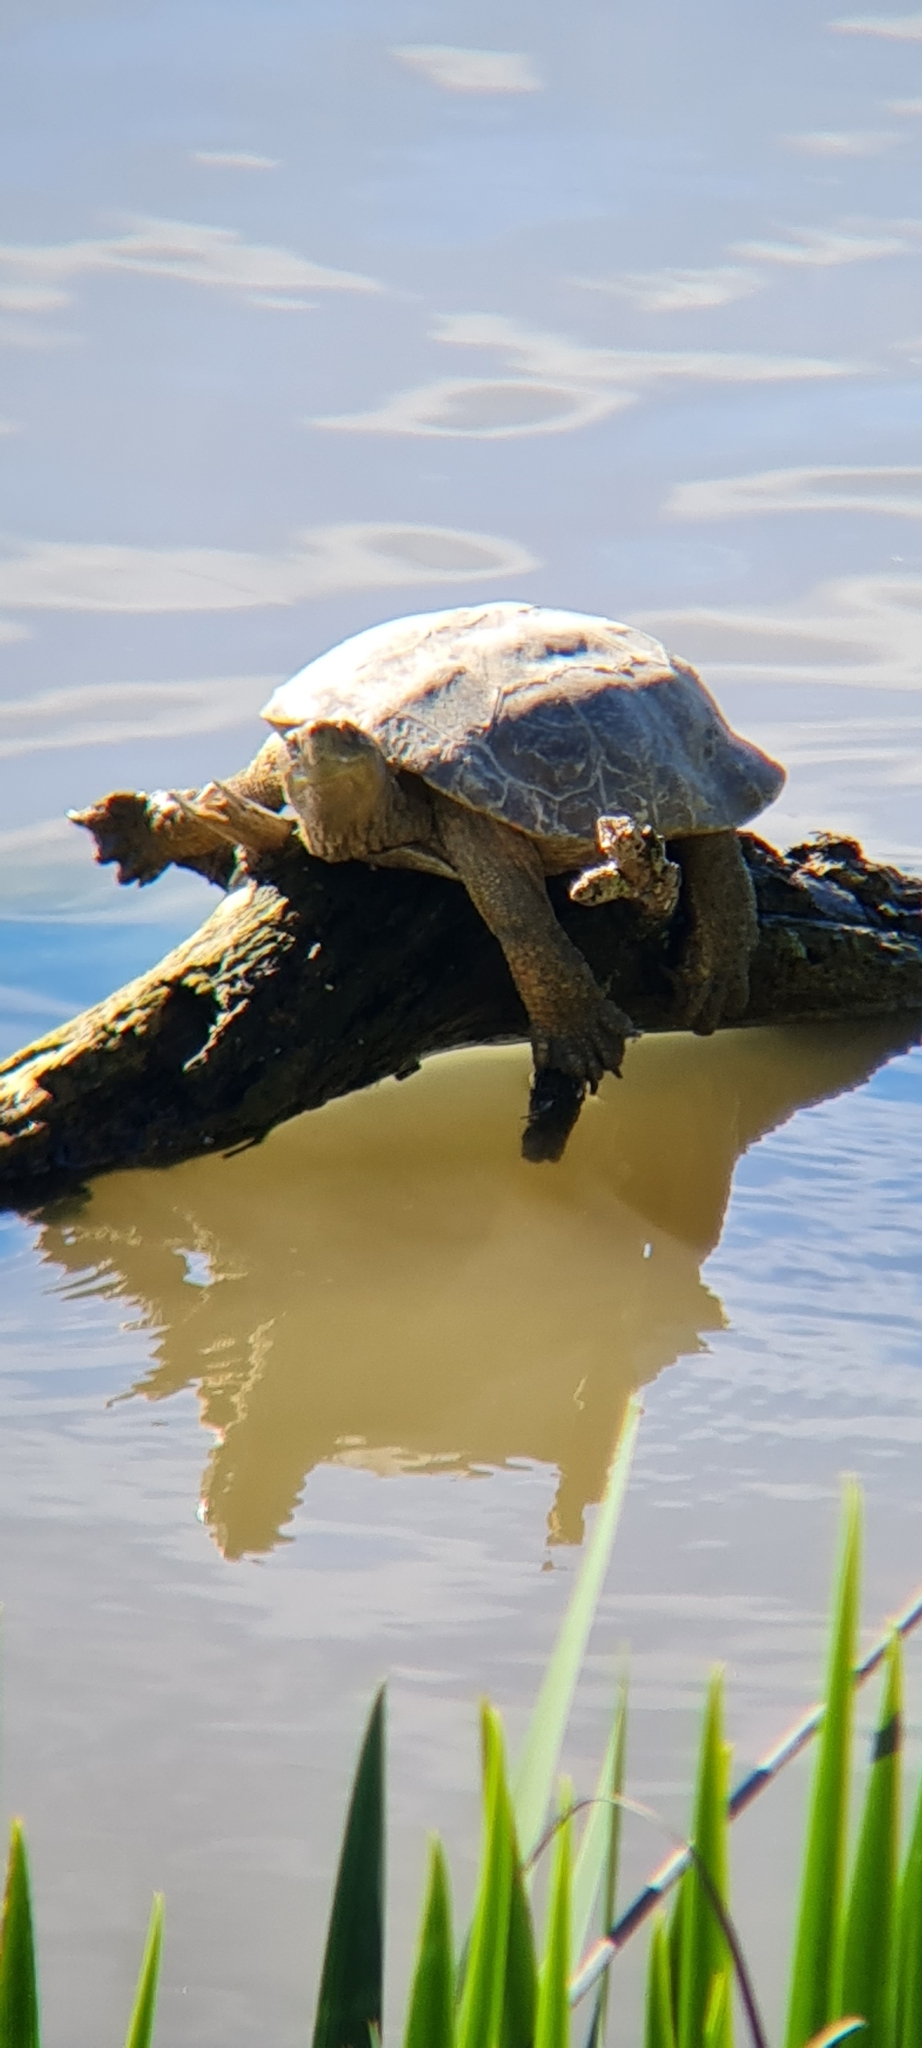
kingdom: Animalia
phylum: Chordata
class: Testudines
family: Geoemydidae
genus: Mauremys
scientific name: Mauremys leprosa
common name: Mediterranean pond turtle
